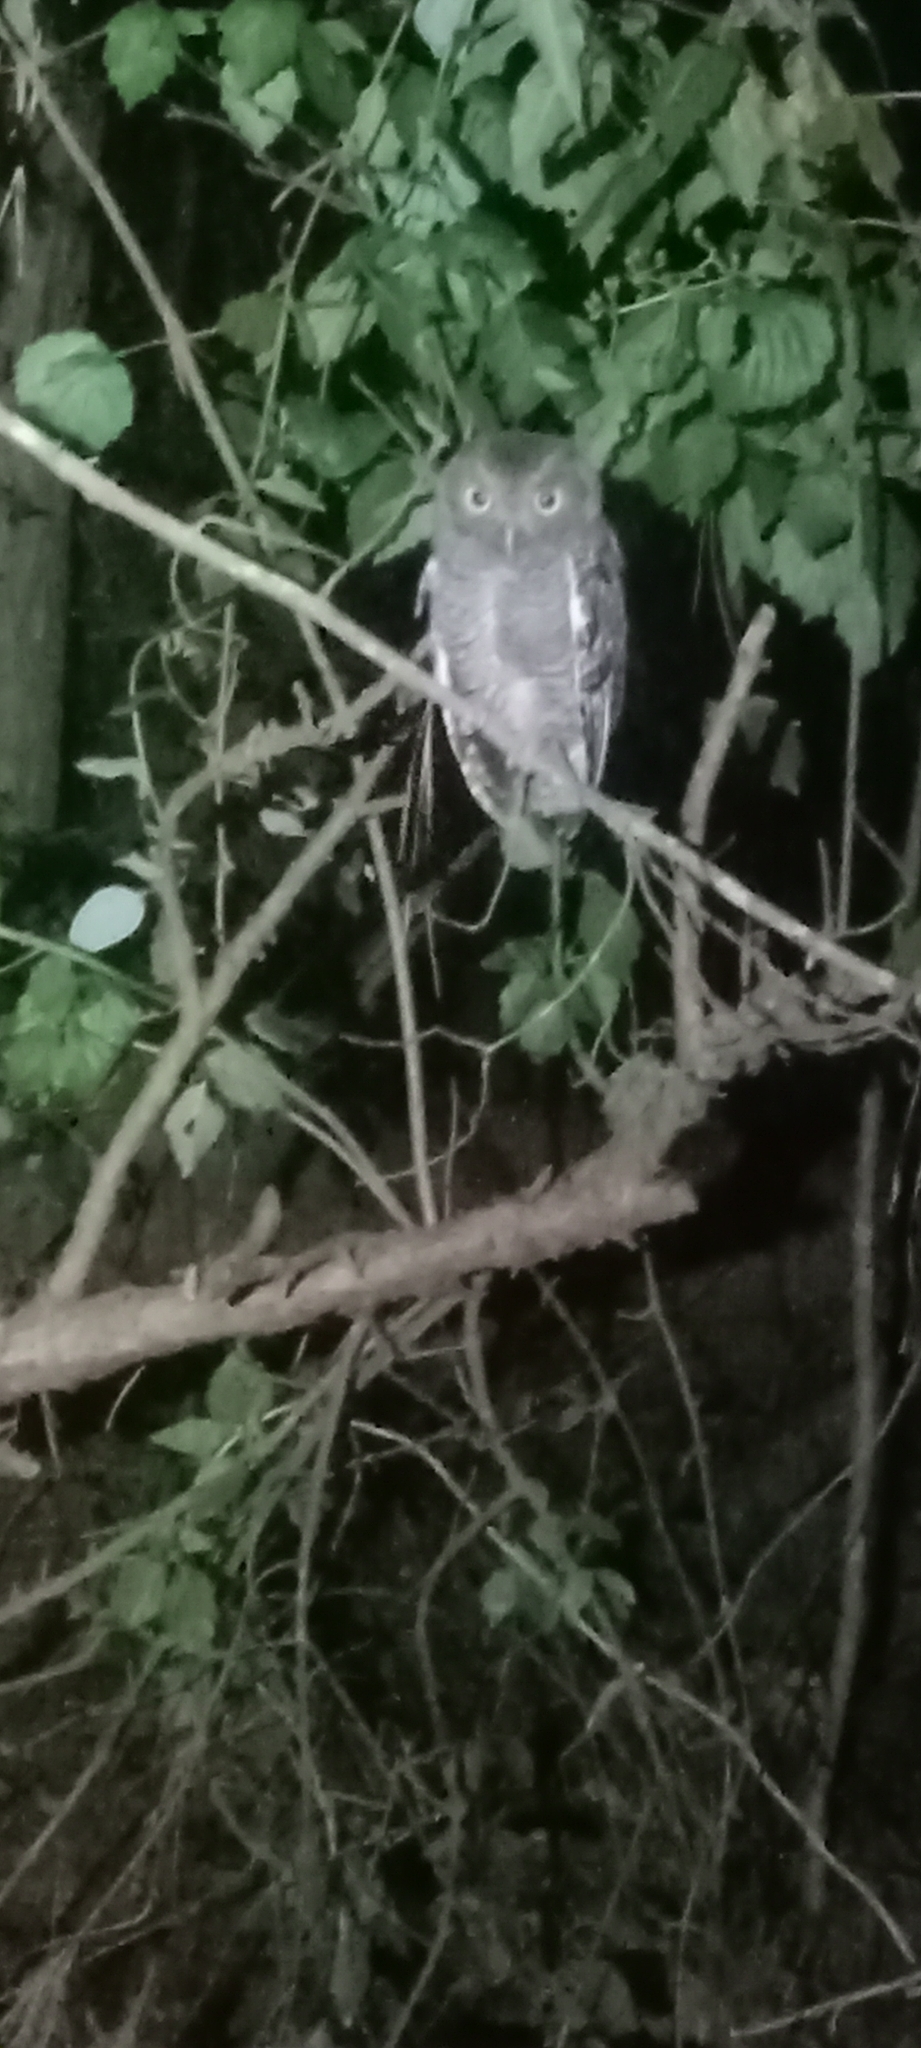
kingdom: Animalia
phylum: Chordata
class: Aves
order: Strigiformes
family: Strigidae
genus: Megascops
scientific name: Megascops asio
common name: Eastern screech-owl
